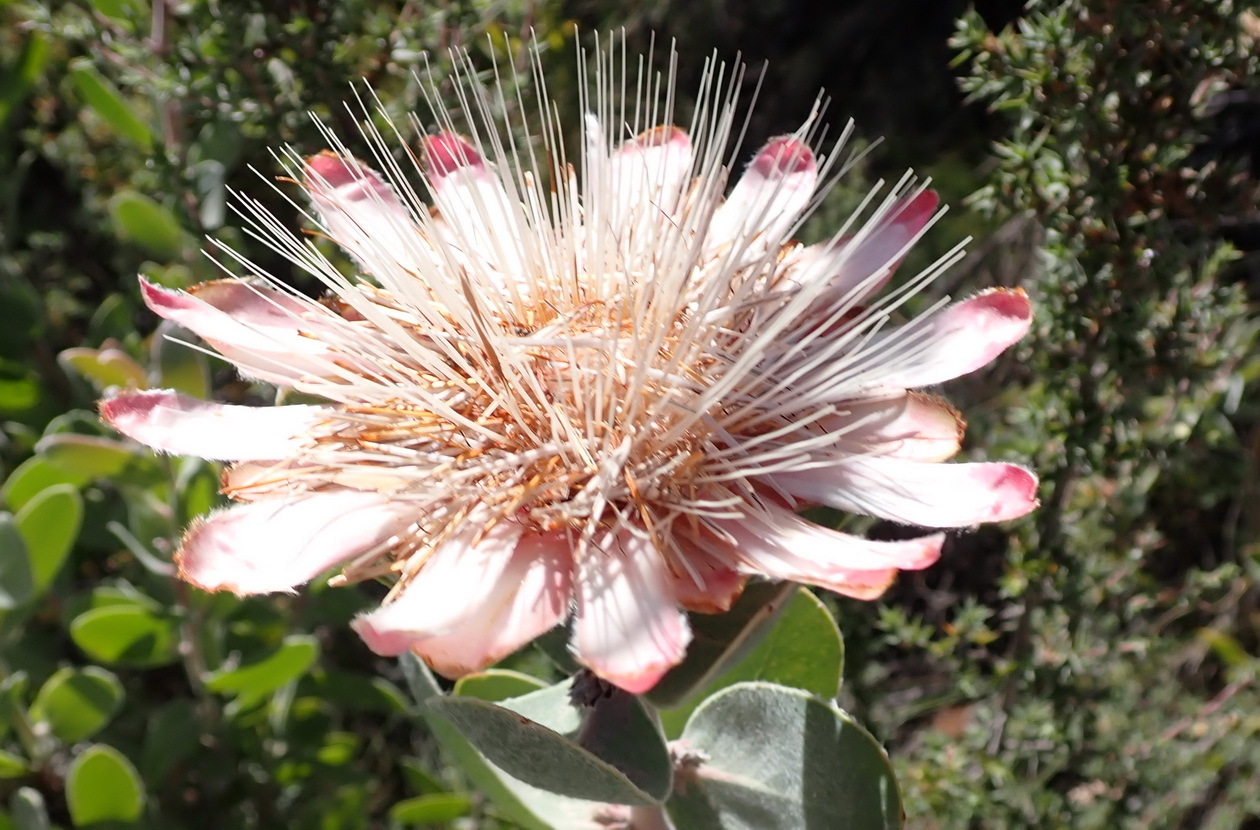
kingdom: Plantae
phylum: Tracheophyta
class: Magnoliopsida
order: Proteales
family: Proteaceae
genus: Protea
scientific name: Protea punctata
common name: Water sugarbush
